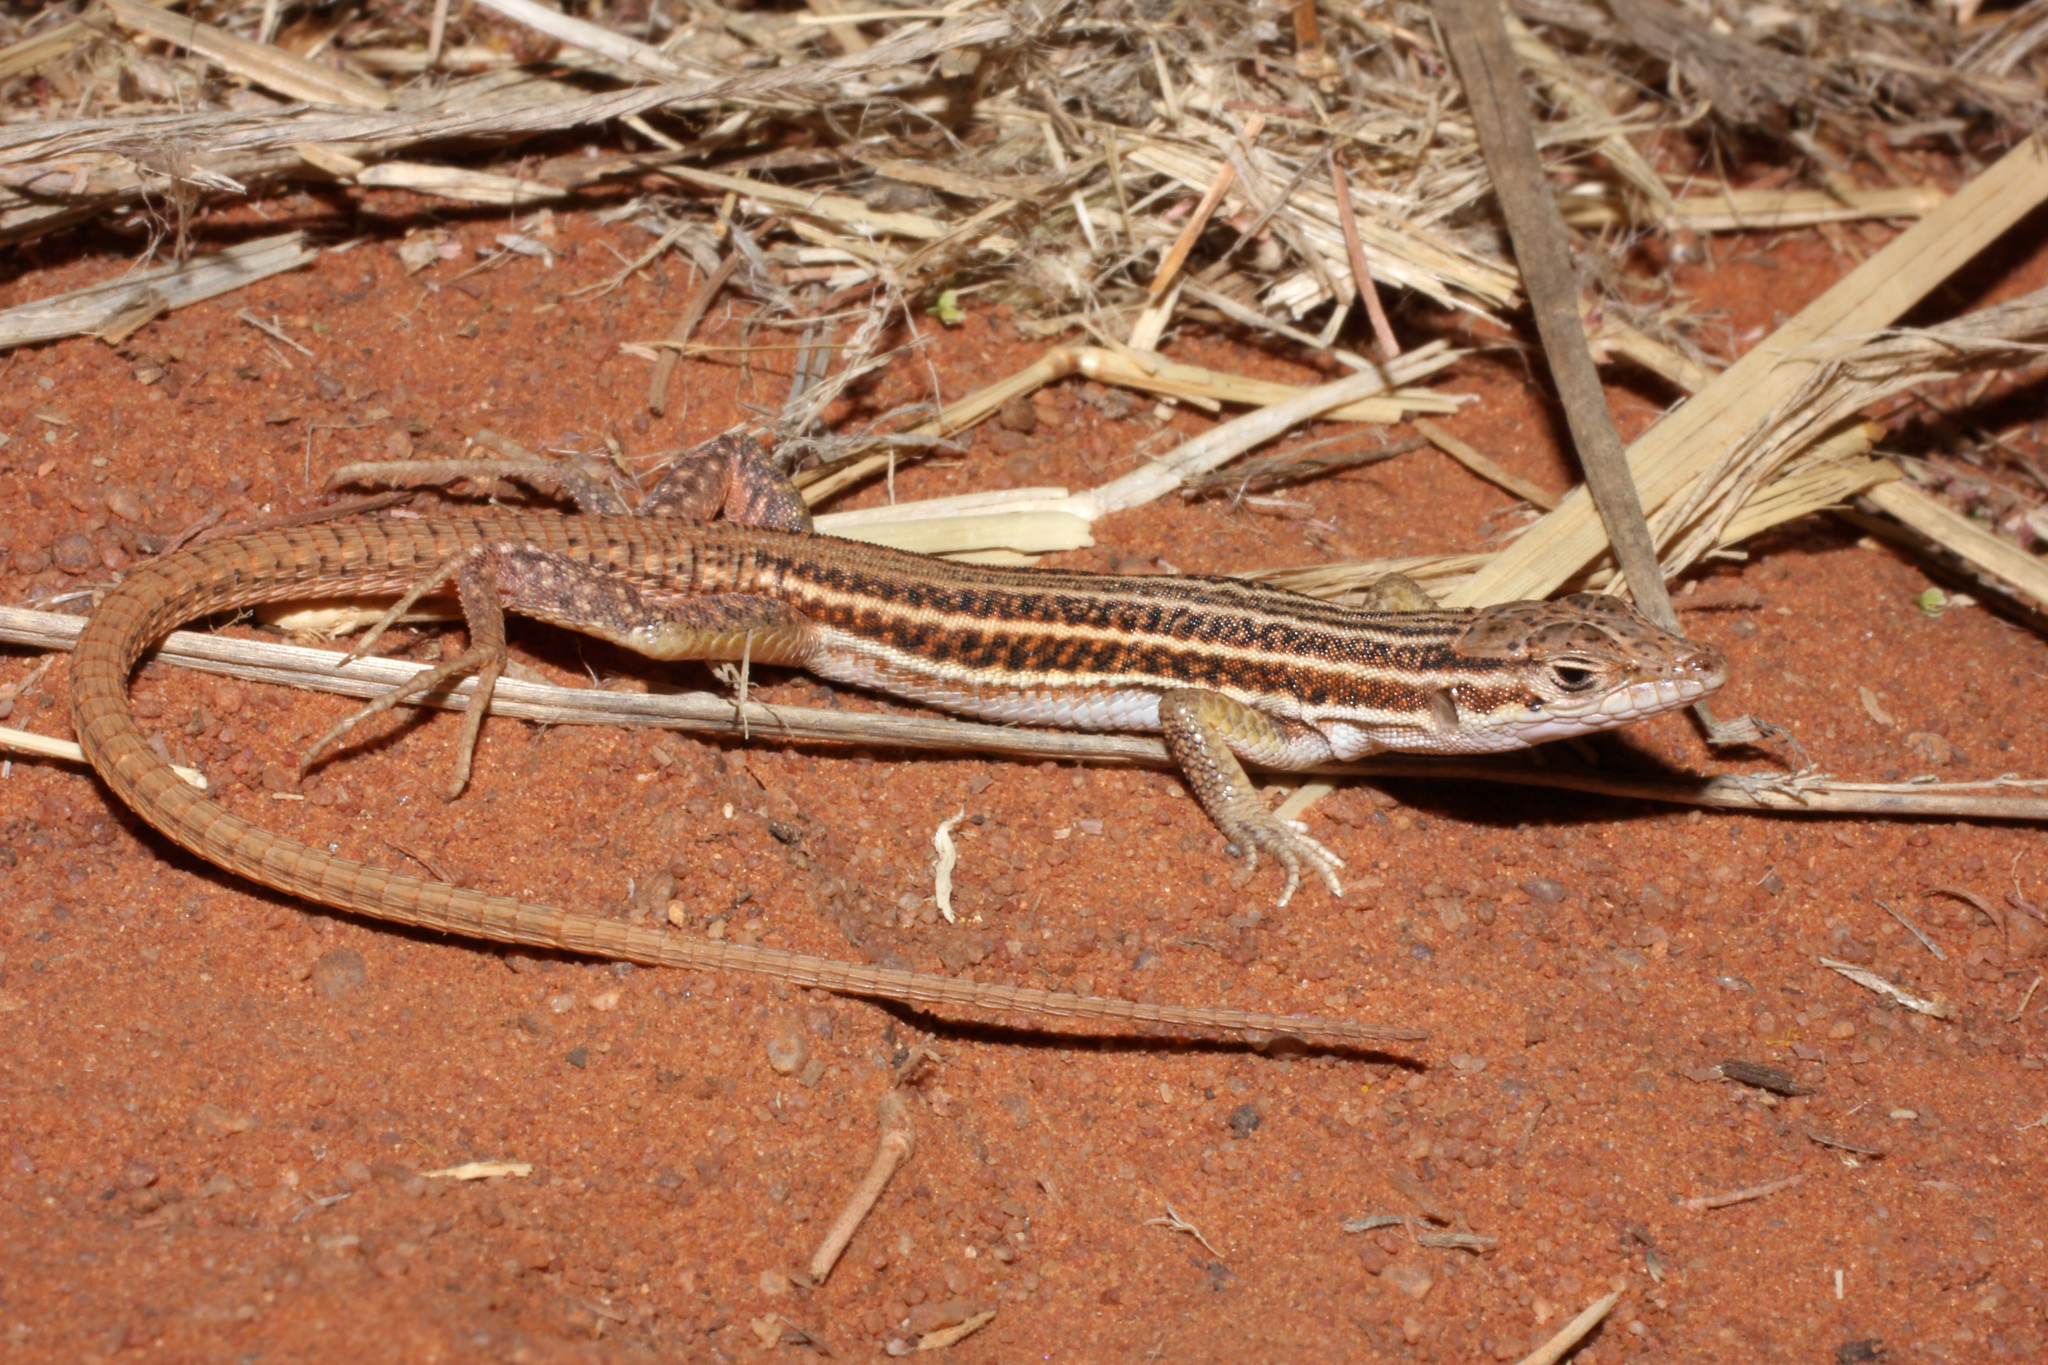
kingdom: Animalia
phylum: Chordata
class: Squamata
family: Lacertidae
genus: Pedioplanis
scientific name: Pedioplanis namaquensis
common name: Namaqua sand lizard
